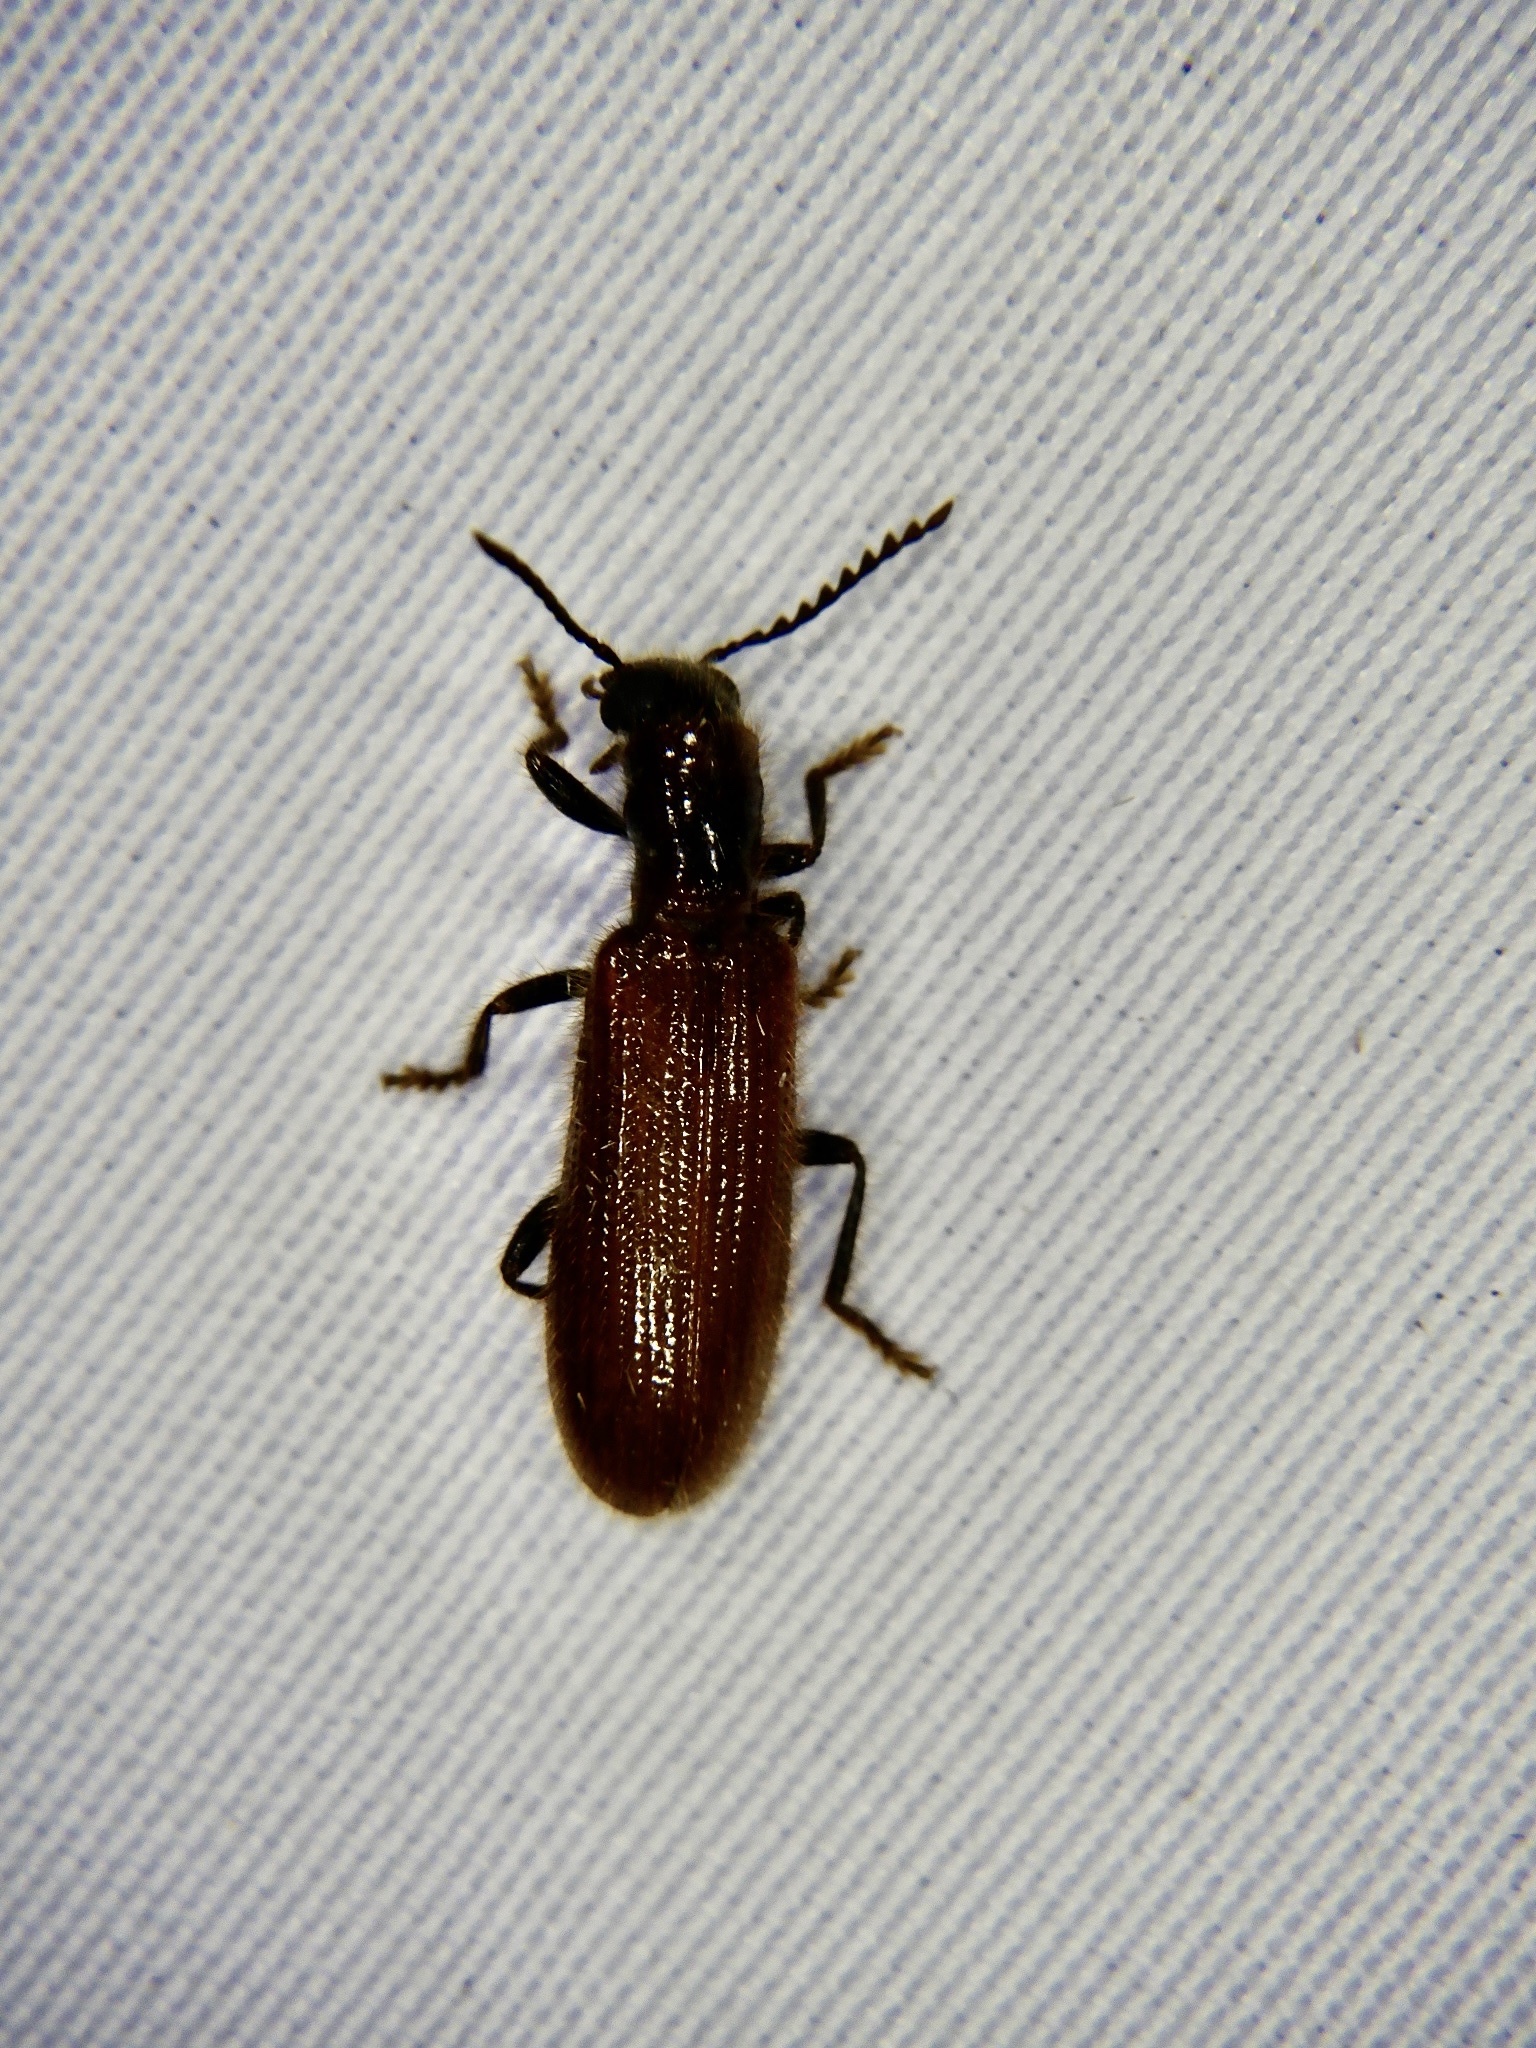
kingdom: Animalia
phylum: Arthropoda
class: Insecta
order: Coleoptera
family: Cleridae
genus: Falsotillus
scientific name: Falsotillus
